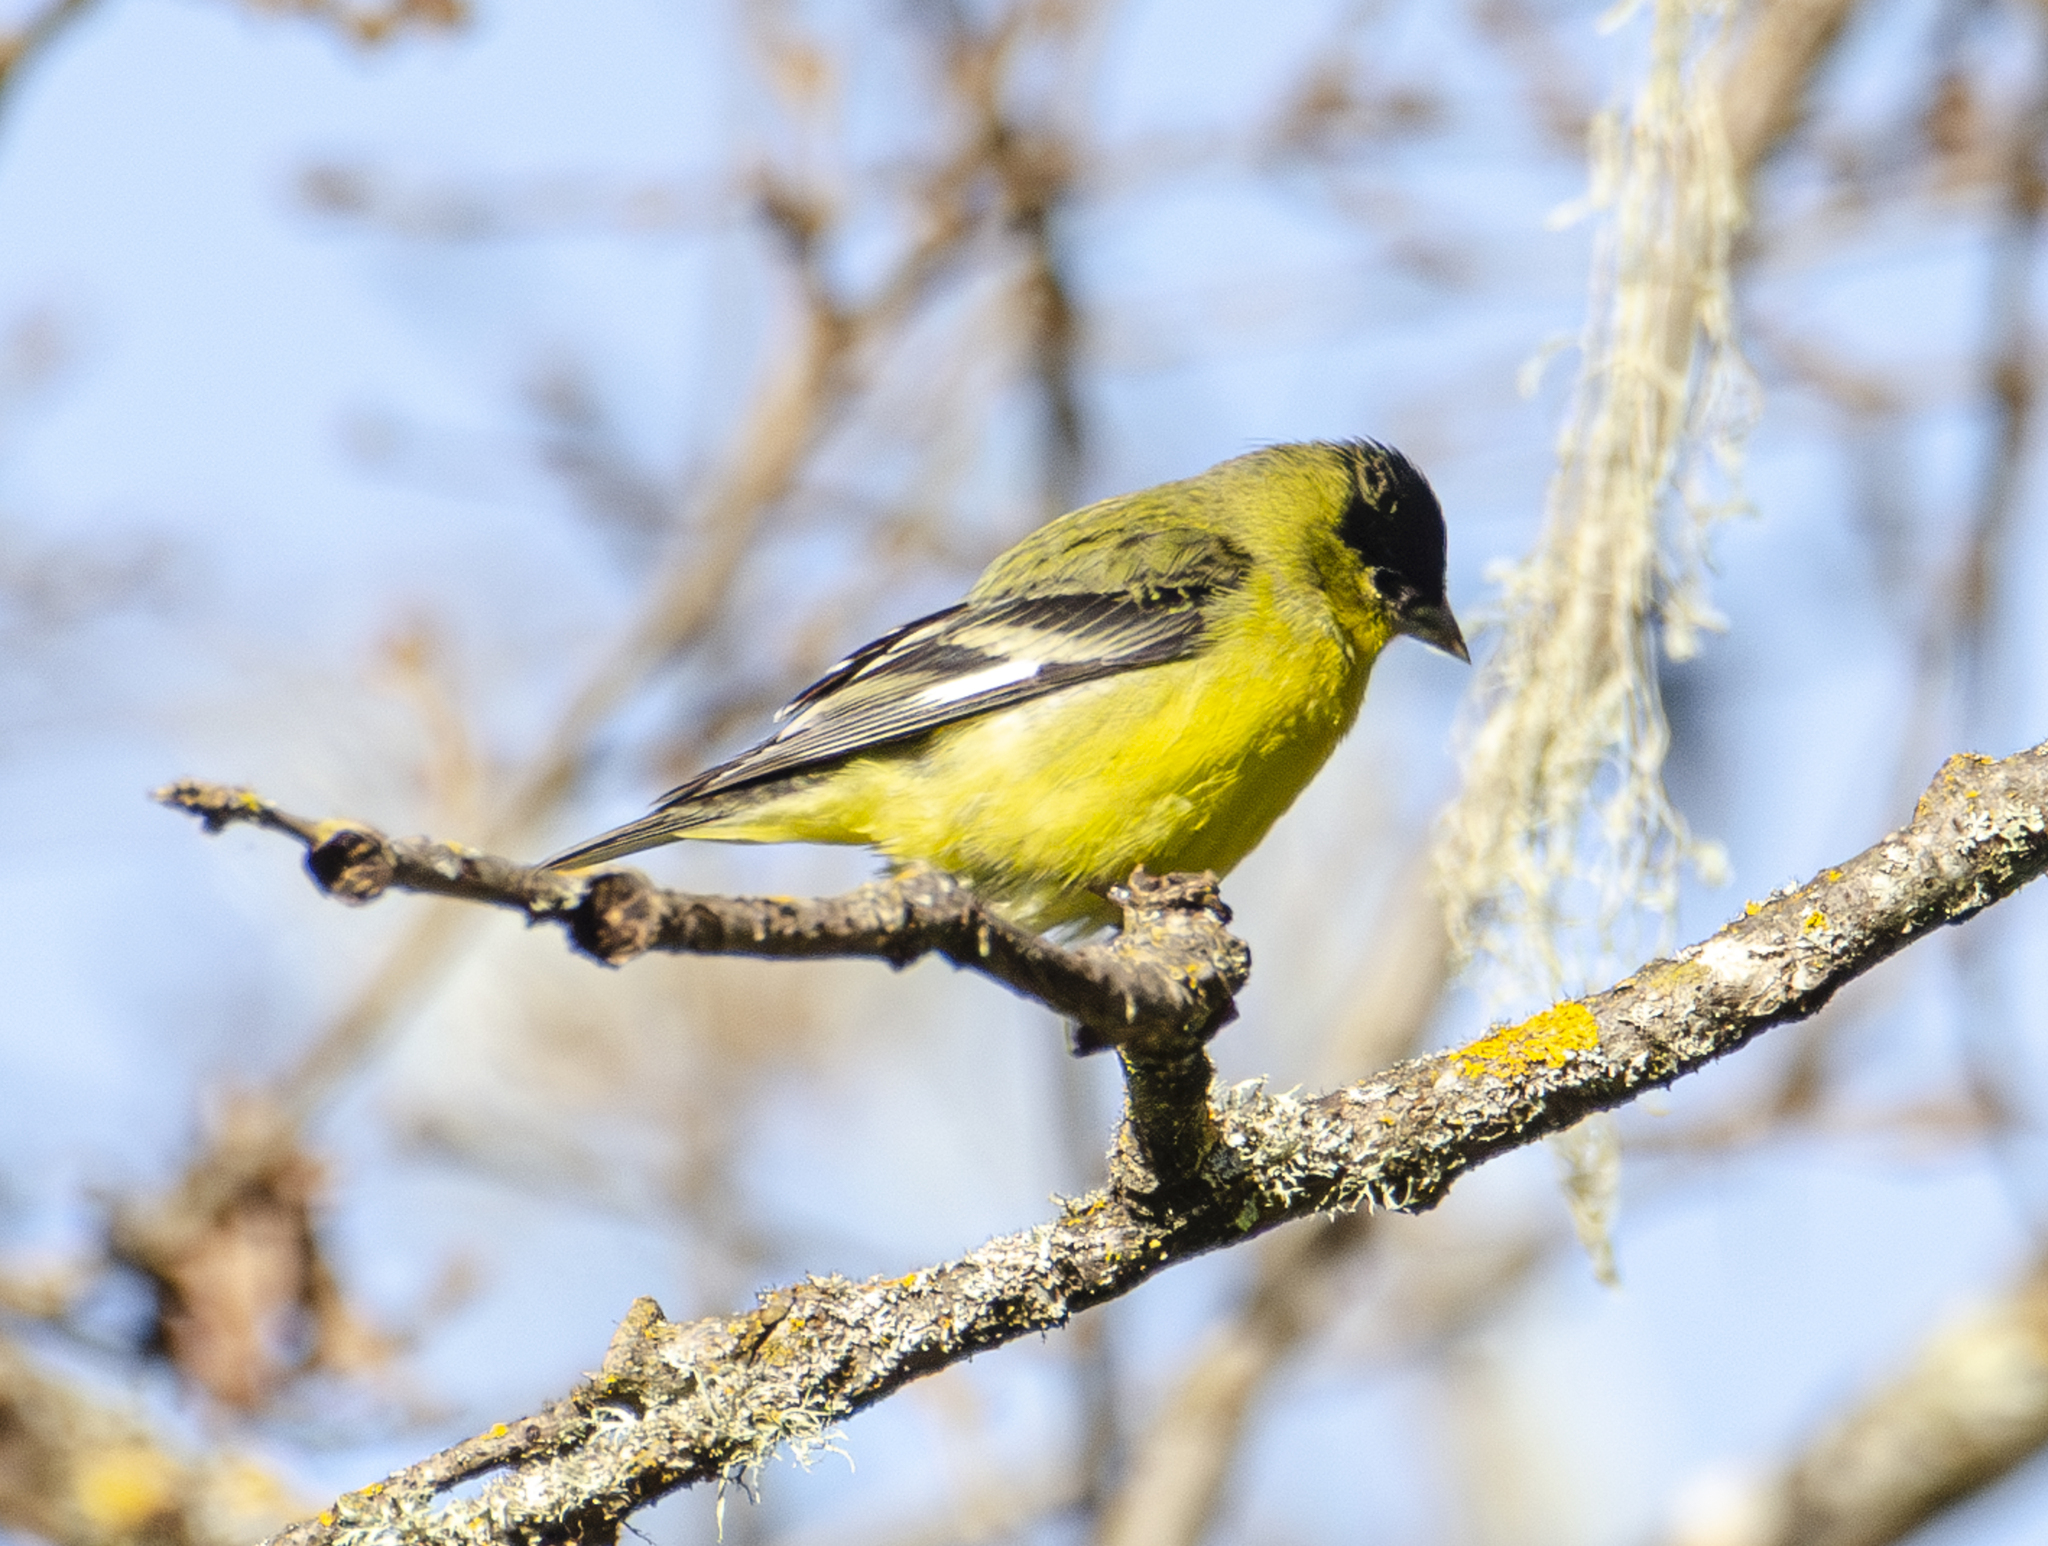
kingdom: Animalia
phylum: Chordata
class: Aves
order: Passeriformes
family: Fringillidae
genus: Spinus
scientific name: Spinus psaltria
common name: Lesser goldfinch
